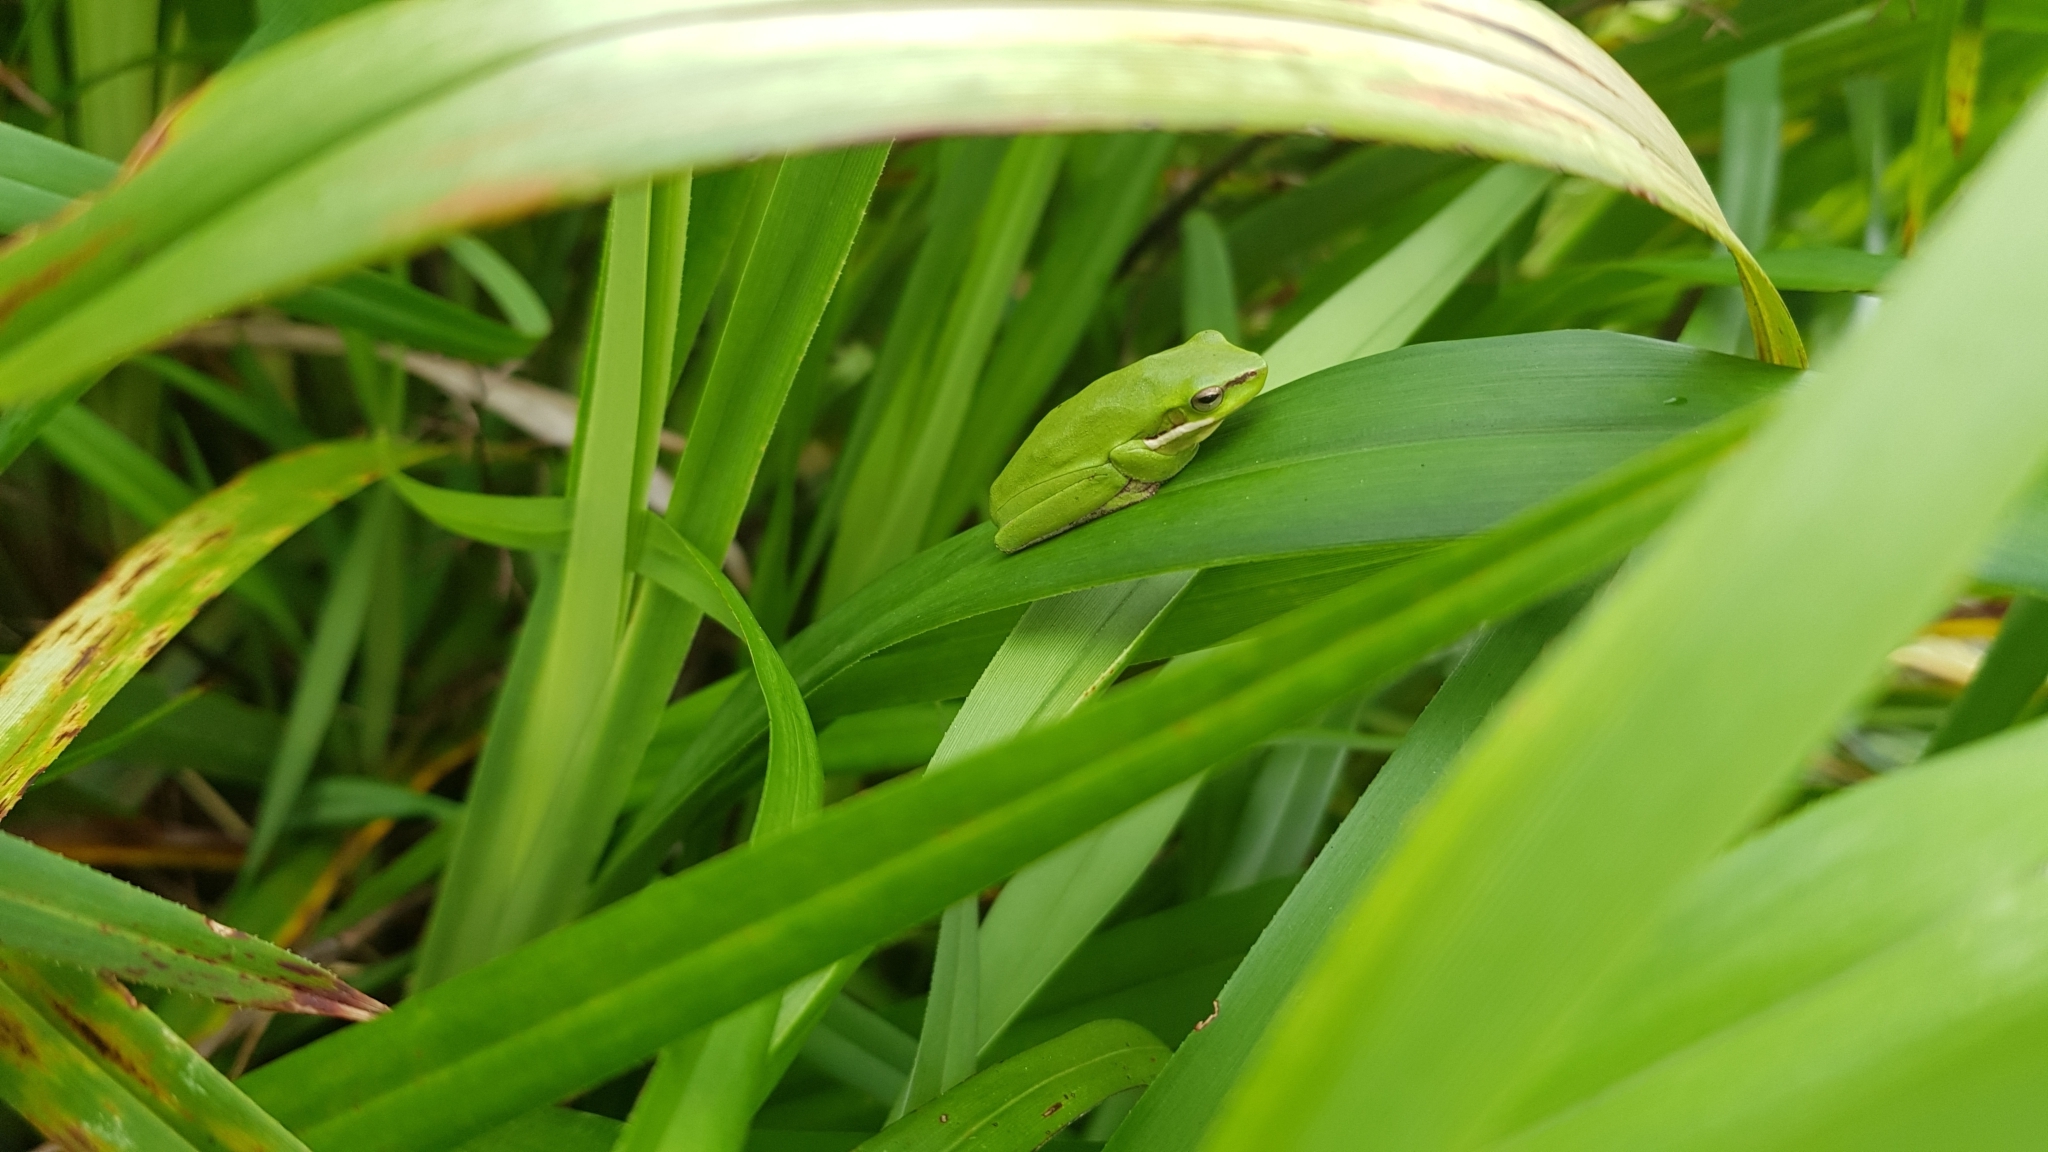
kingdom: Animalia
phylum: Chordata
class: Amphibia
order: Anura
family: Pelodryadidae
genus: Litoria
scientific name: Litoria fallax
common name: Eastern dwarf treefrog
